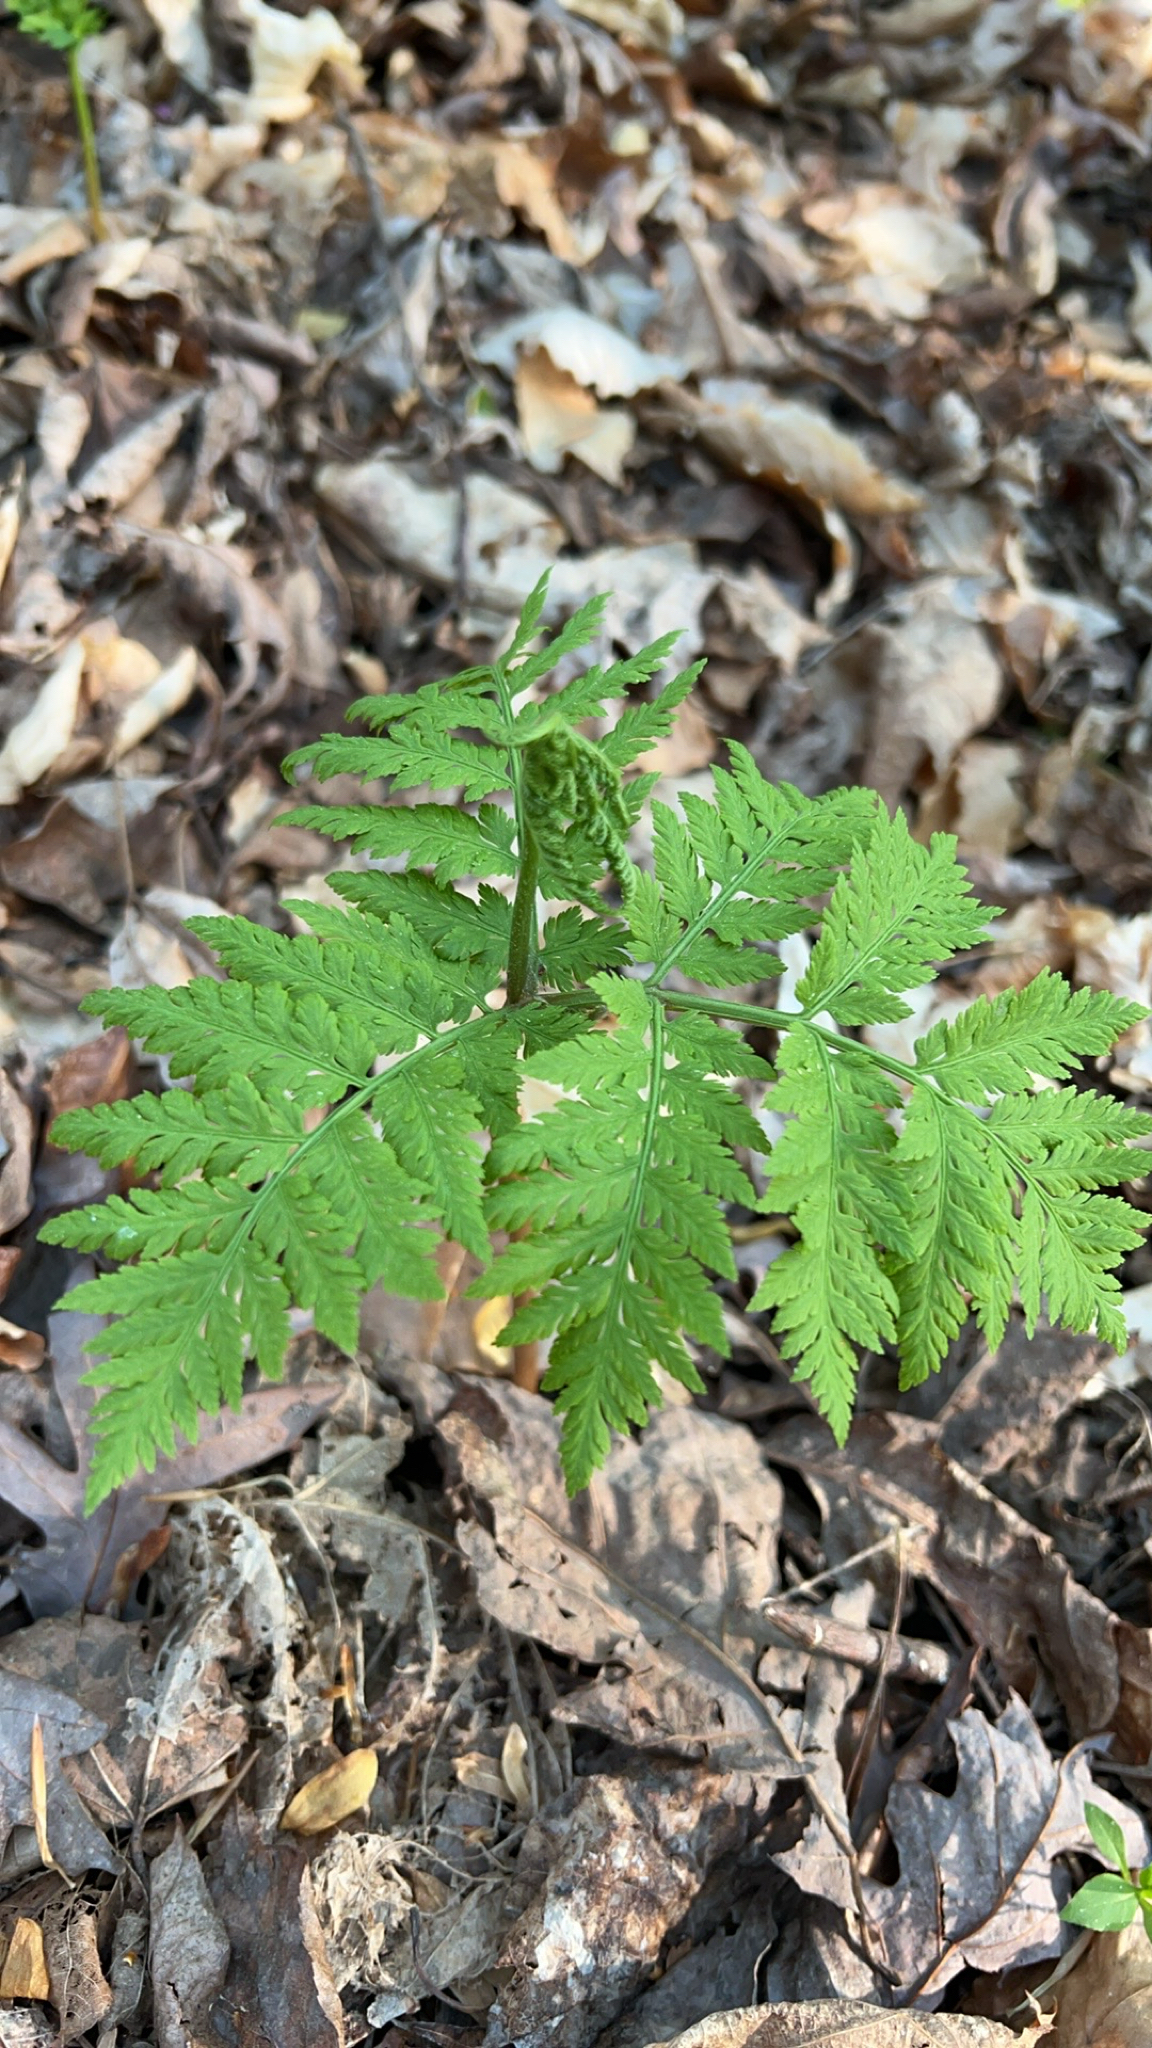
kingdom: Plantae
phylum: Tracheophyta
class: Polypodiopsida
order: Ophioglossales
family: Ophioglossaceae
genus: Botrypus
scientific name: Botrypus virginianus
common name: Common grapefern
